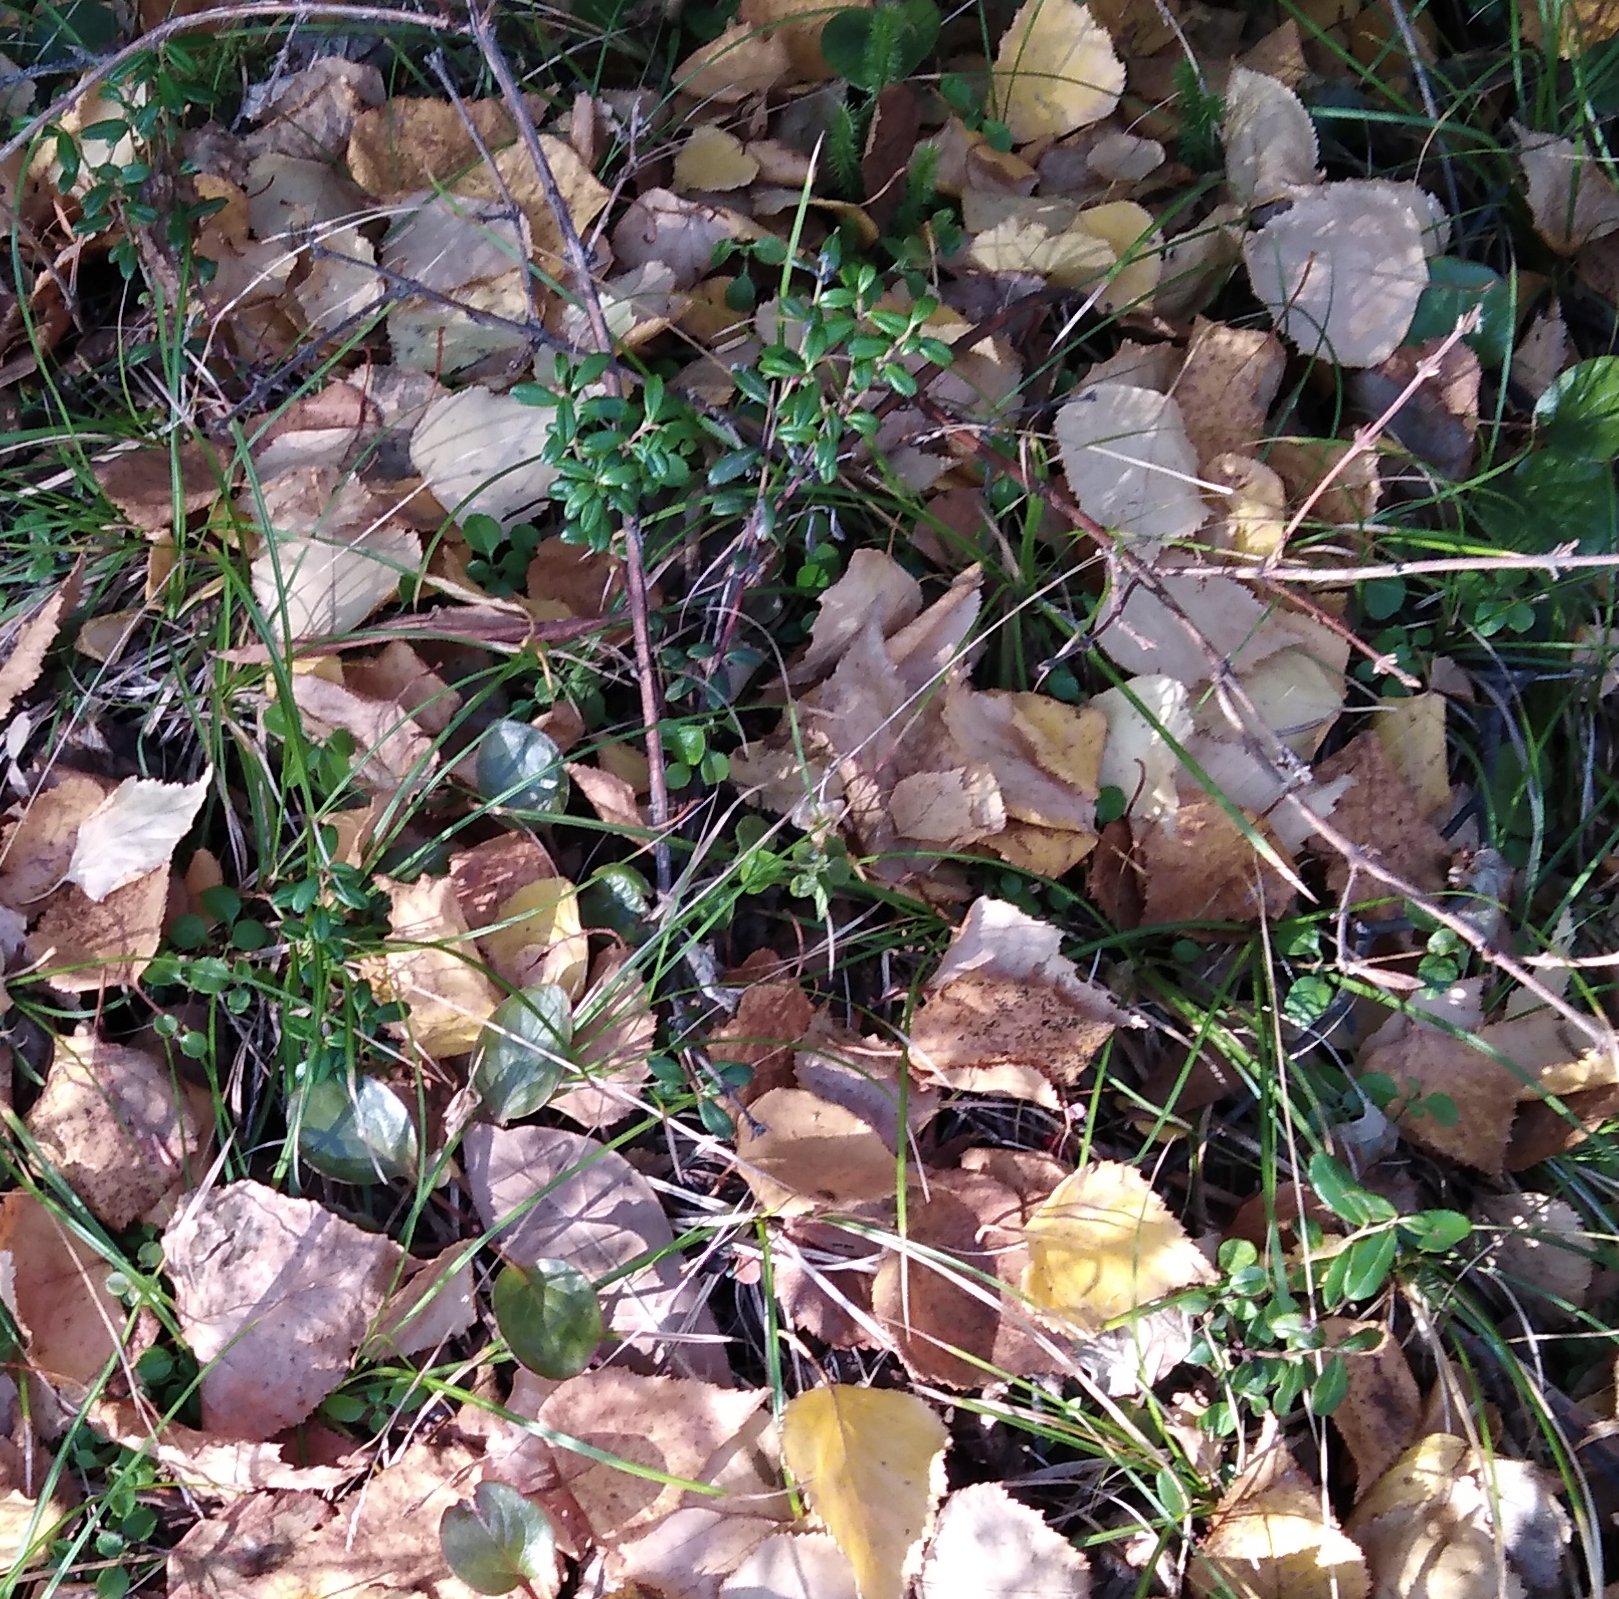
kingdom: Plantae
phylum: Tracheophyta
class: Magnoliopsida
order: Ericales
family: Ericaceae
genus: Vaccinium
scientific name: Vaccinium vitis-idaea
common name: Cowberry
